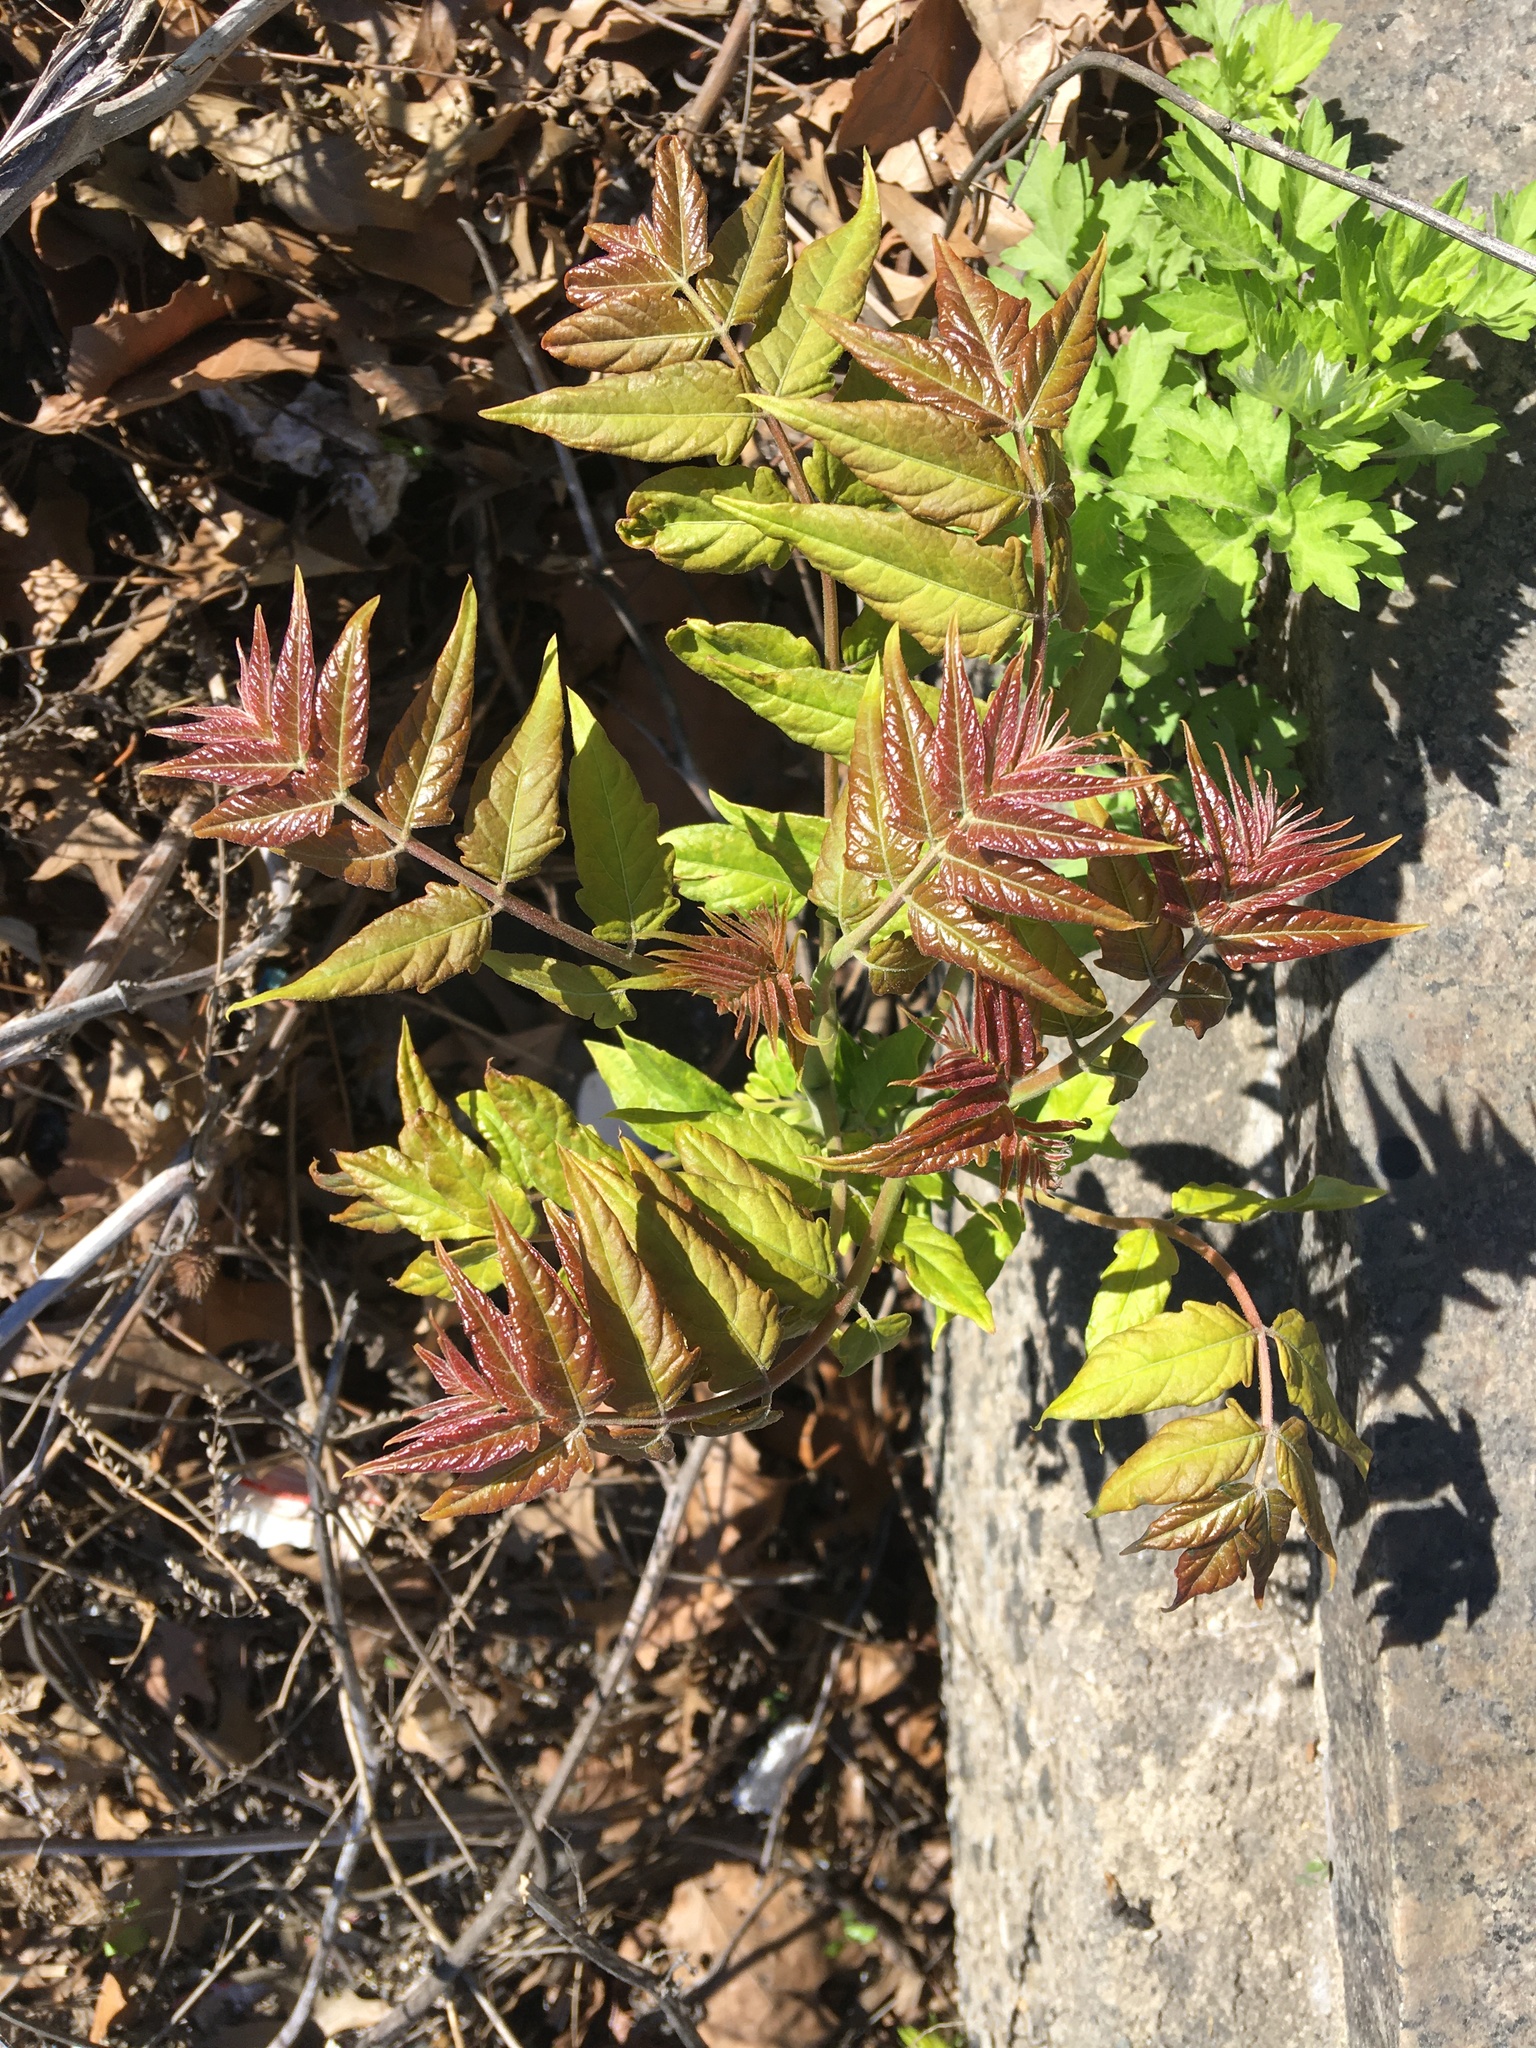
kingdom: Plantae
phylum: Tracheophyta
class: Magnoliopsida
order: Sapindales
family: Simaroubaceae
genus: Ailanthus
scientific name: Ailanthus altissima
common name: Tree-of-heaven
